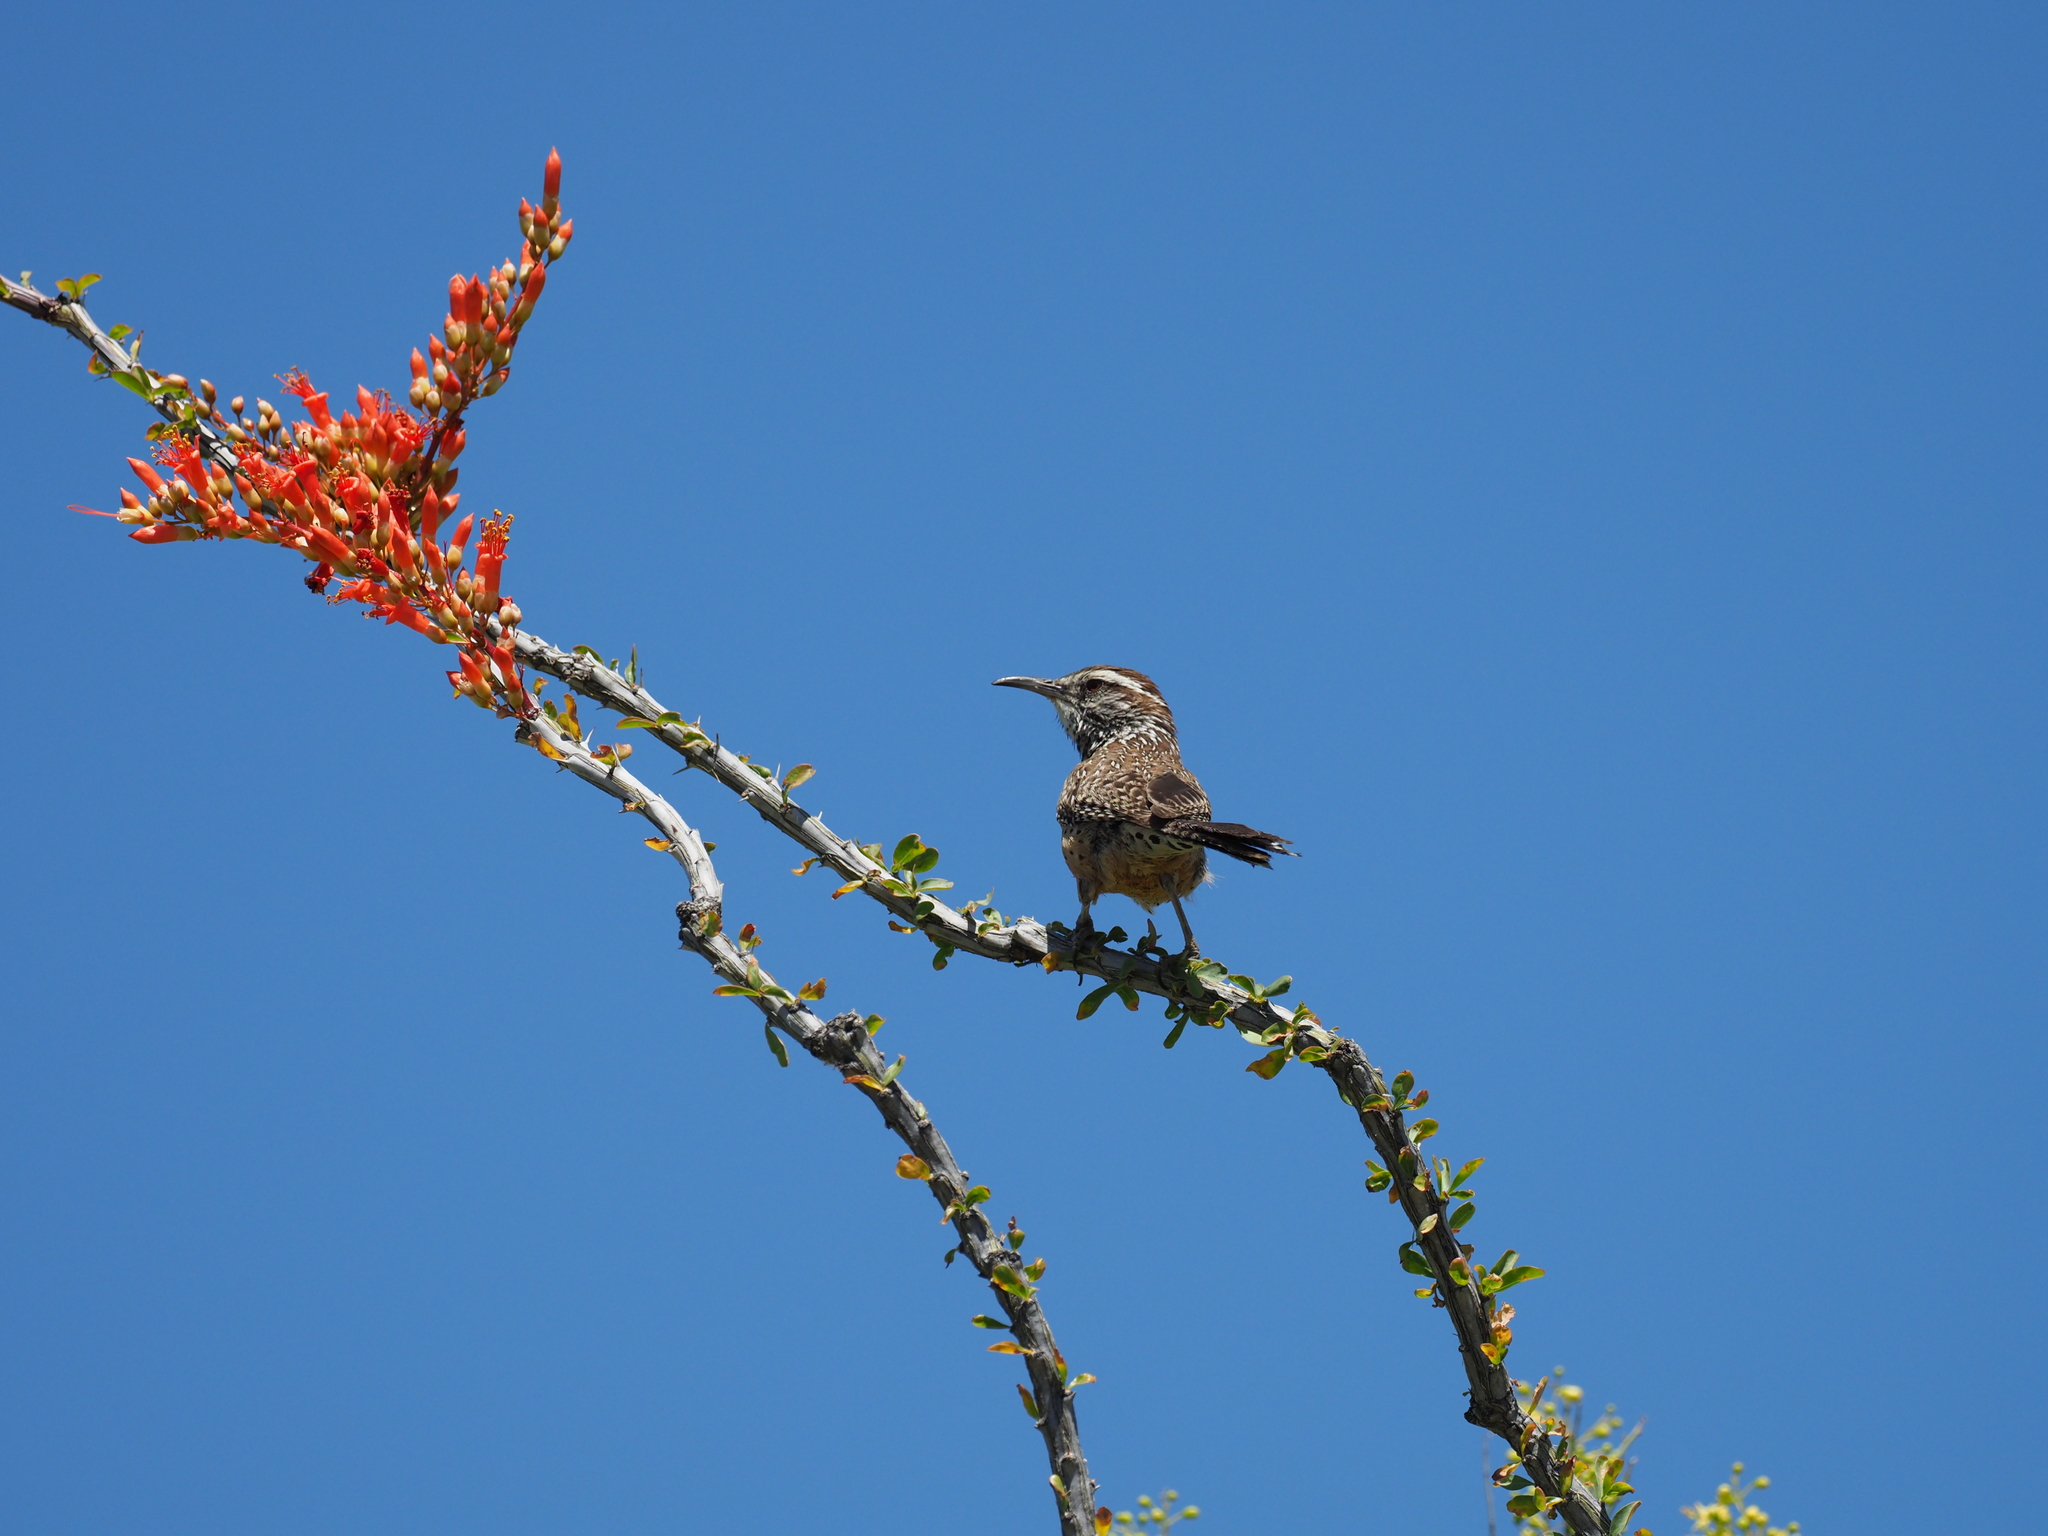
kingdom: Animalia
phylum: Chordata
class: Aves
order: Passeriformes
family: Troglodytidae
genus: Campylorhynchus
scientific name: Campylorhynchus brunneicapillus
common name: Cactus wren
